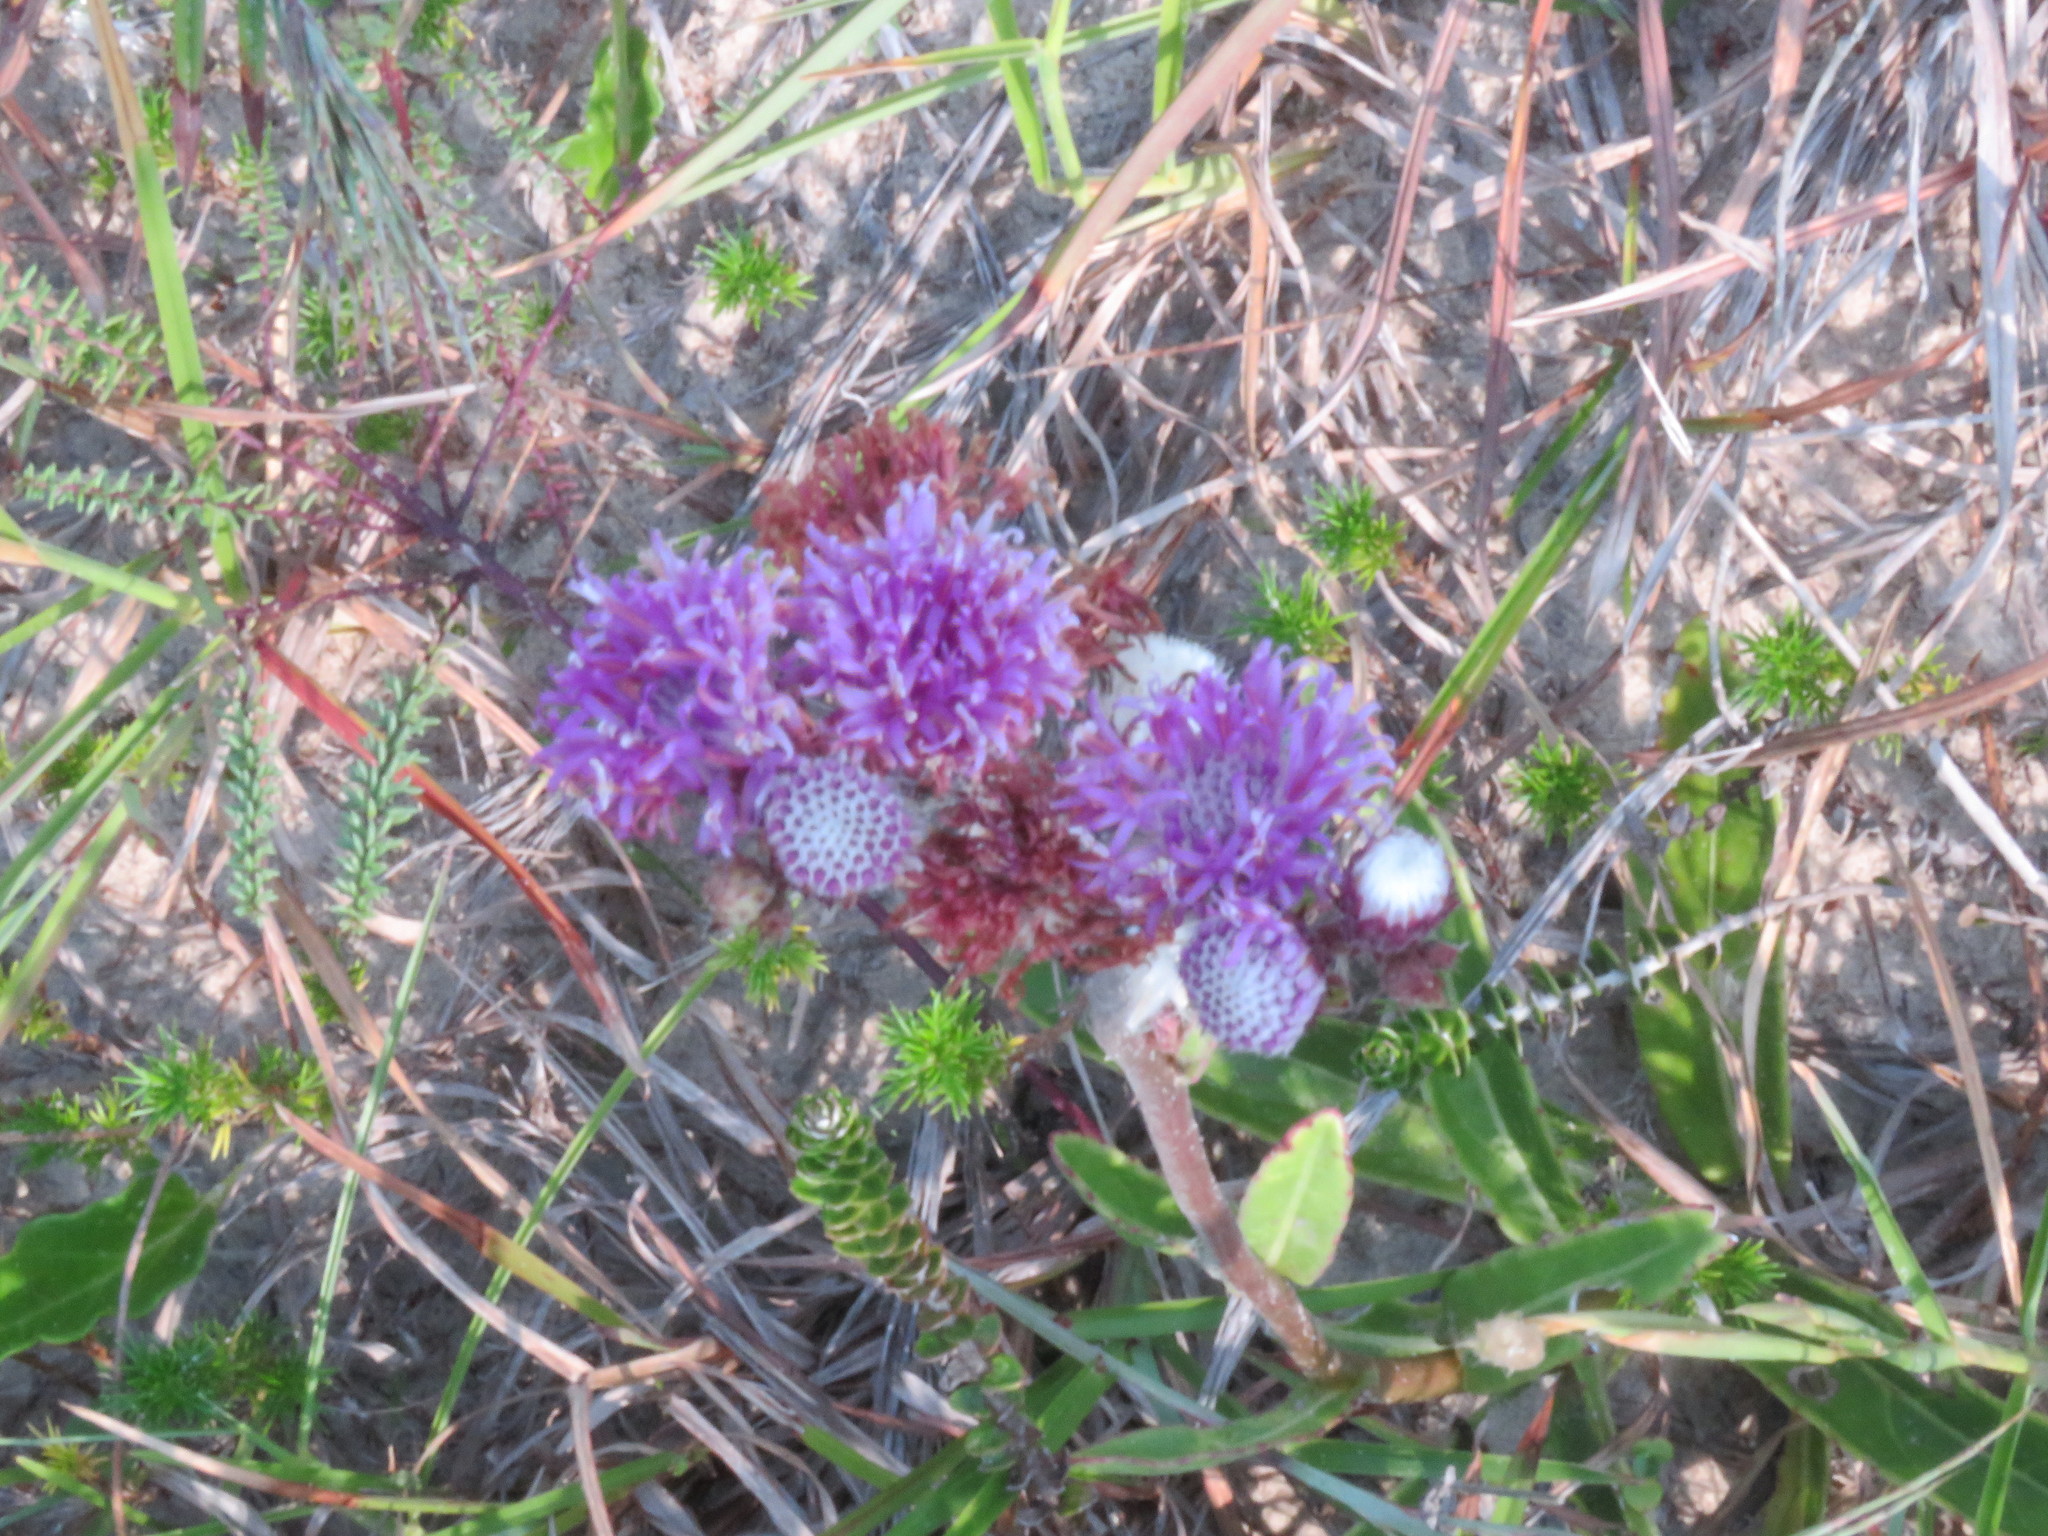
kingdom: Plantae
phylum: Tracheophyta
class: Magnoliopsida
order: Asterales
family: Asteraceae
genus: Chrysolaena
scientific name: Chrysolaena flexuosa
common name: Zig-zag vernonia
